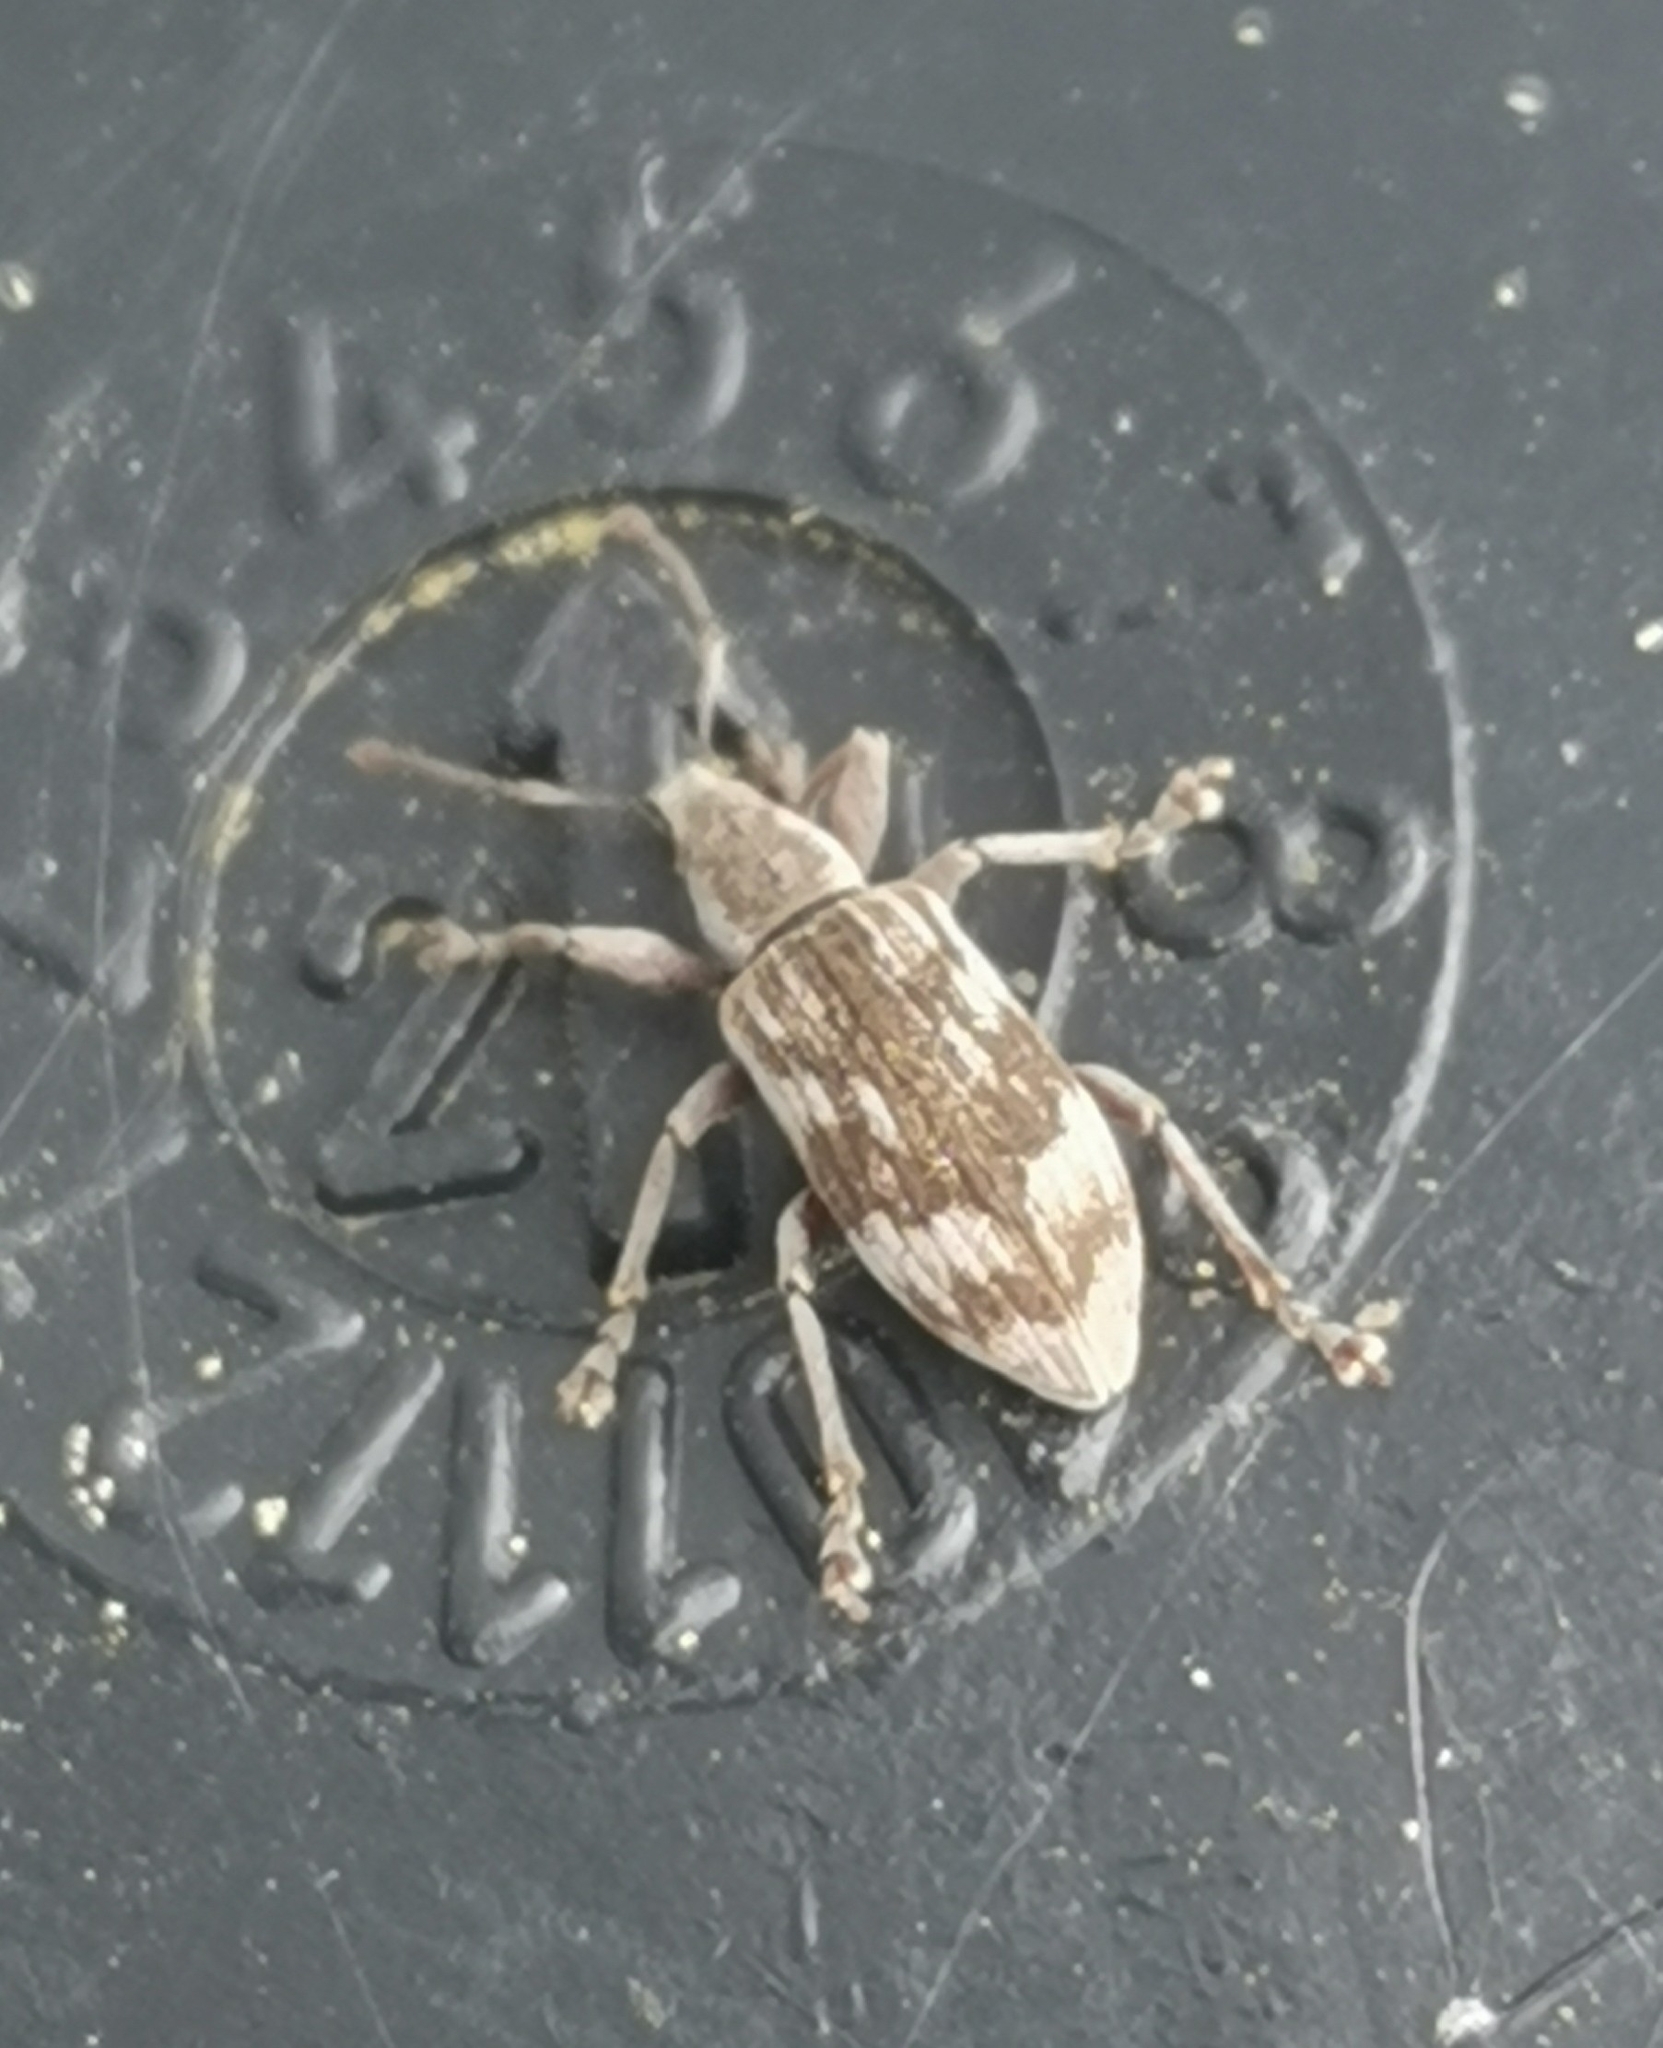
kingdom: Animalia
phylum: Arthropoda
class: Insecta
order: Coleoptera
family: Curculionidae
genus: Polydrusus
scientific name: Polydrusus tereticollis
